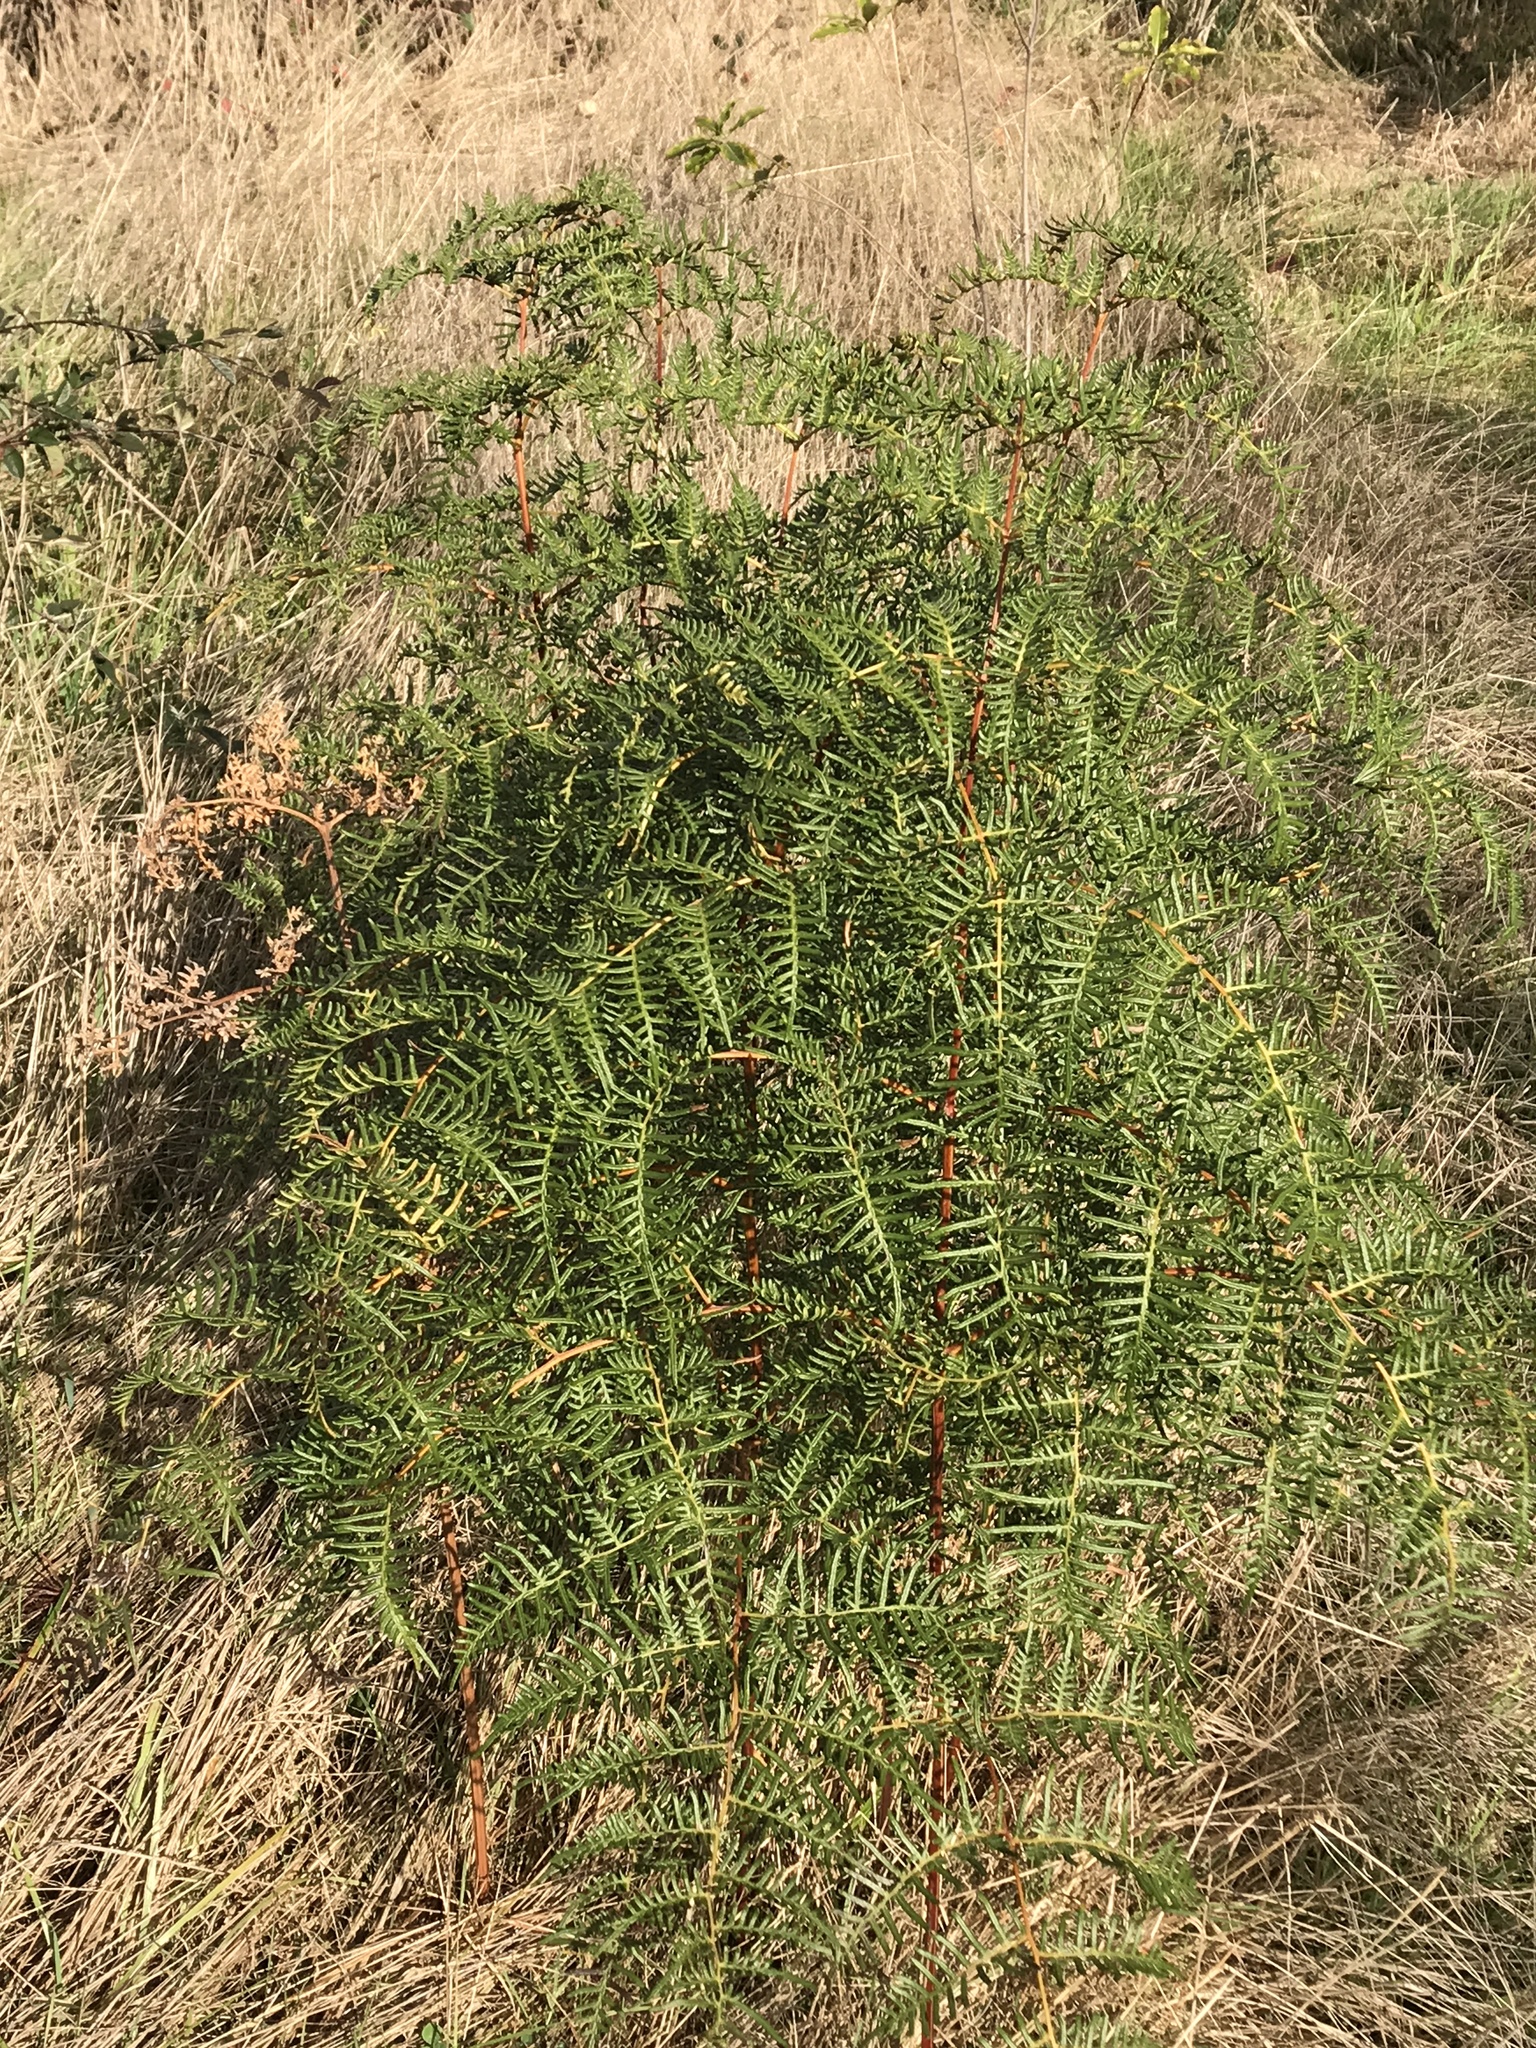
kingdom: Plantae
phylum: Tracheophyta
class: Polypodiopsida
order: Polypodiales
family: Dennstaedtiaceae
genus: Pteridium
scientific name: Pteridium esculentum
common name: Bracken fern
